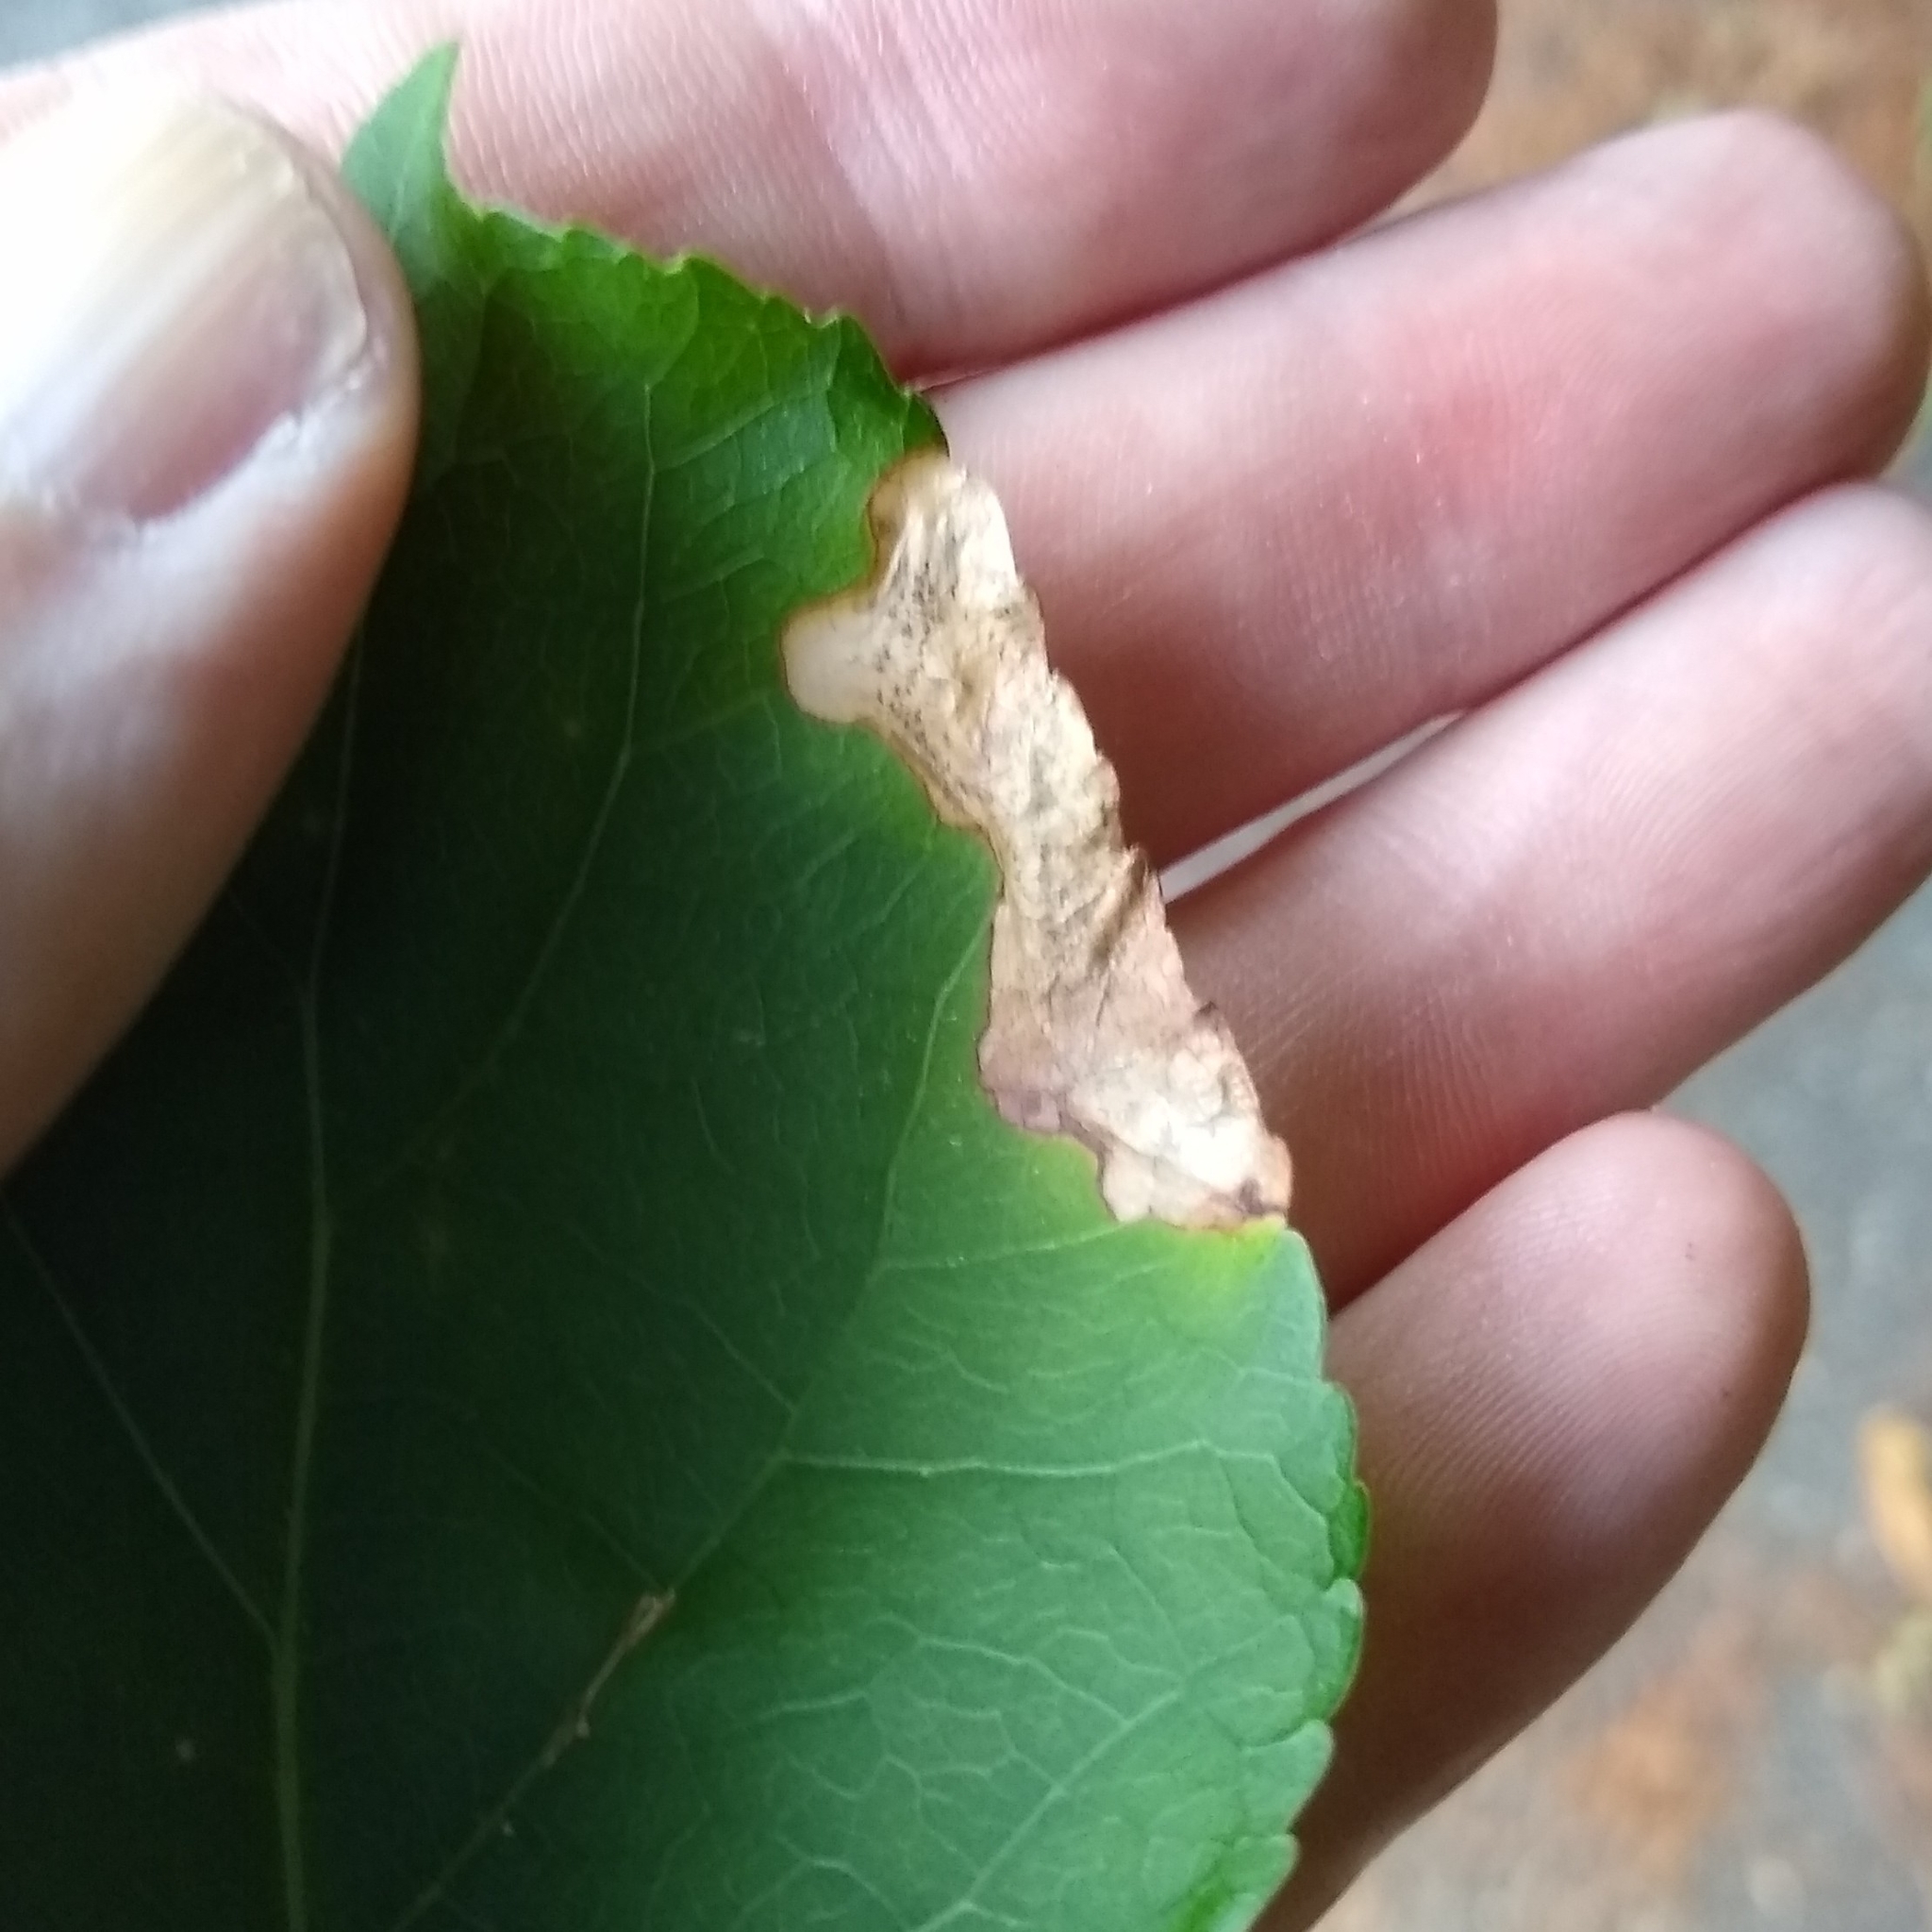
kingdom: Animalia
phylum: Arthropoda
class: Insecta
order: Coleoptera
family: Chrysomelidae
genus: Sumitrosis
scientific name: Sumitrosis rosea
